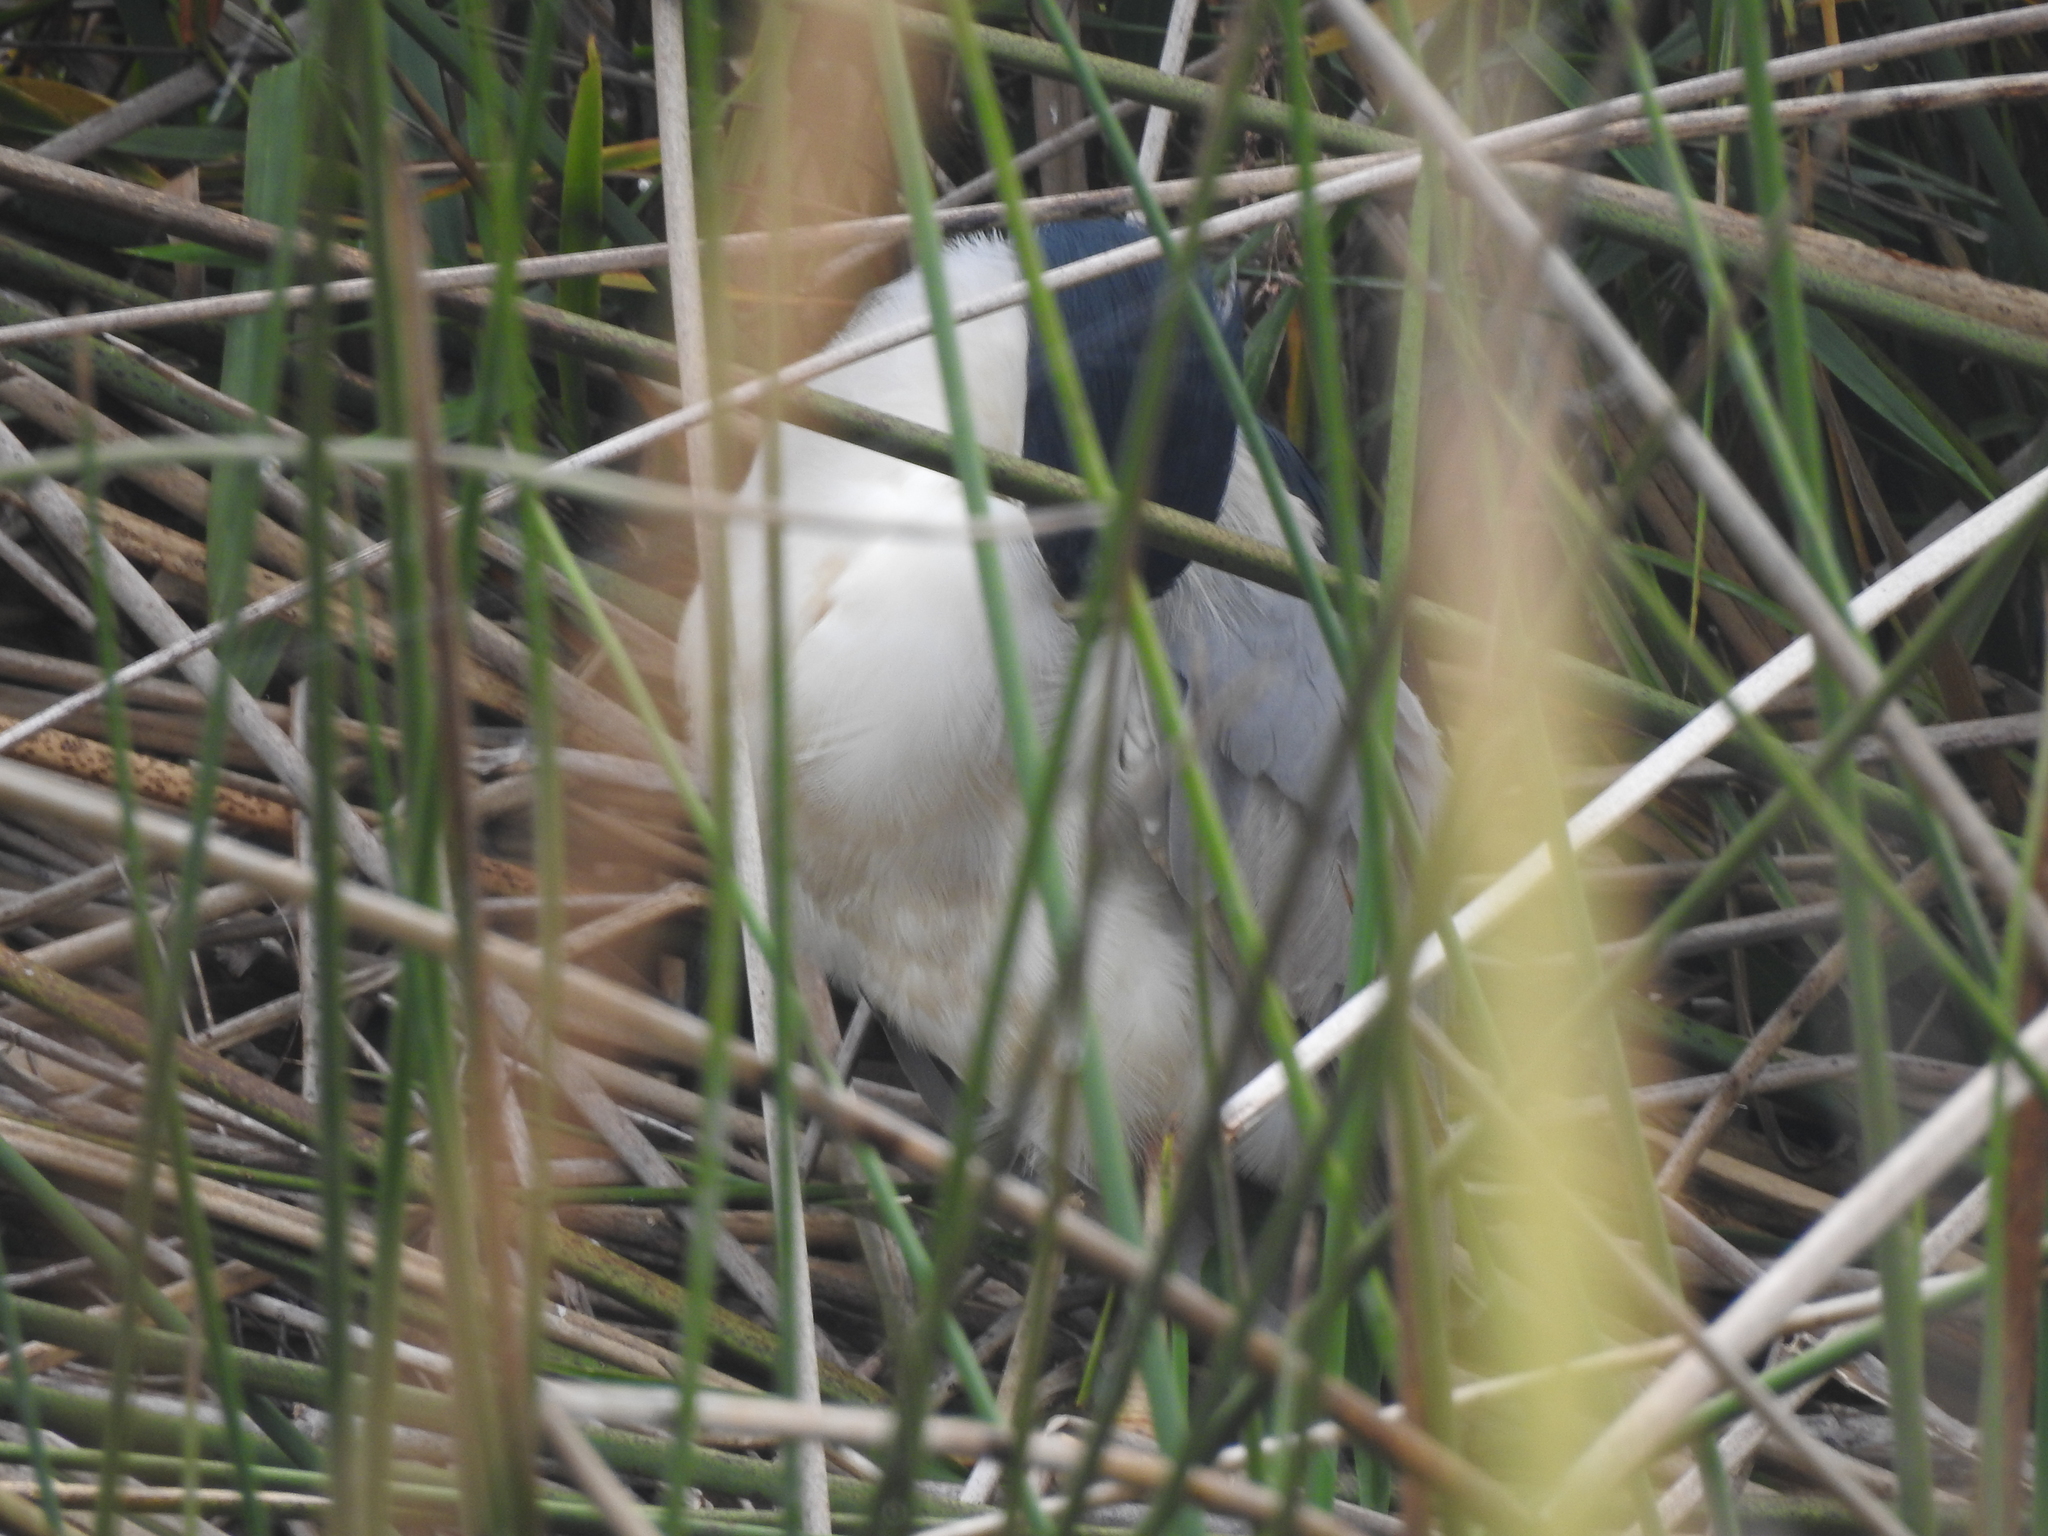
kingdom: Animalia
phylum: Chordata
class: Aves
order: Pelecaniformes
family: Ardeidae
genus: Nycticorax
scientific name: Nycticorax nycticorax
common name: Black-crowned night heron
